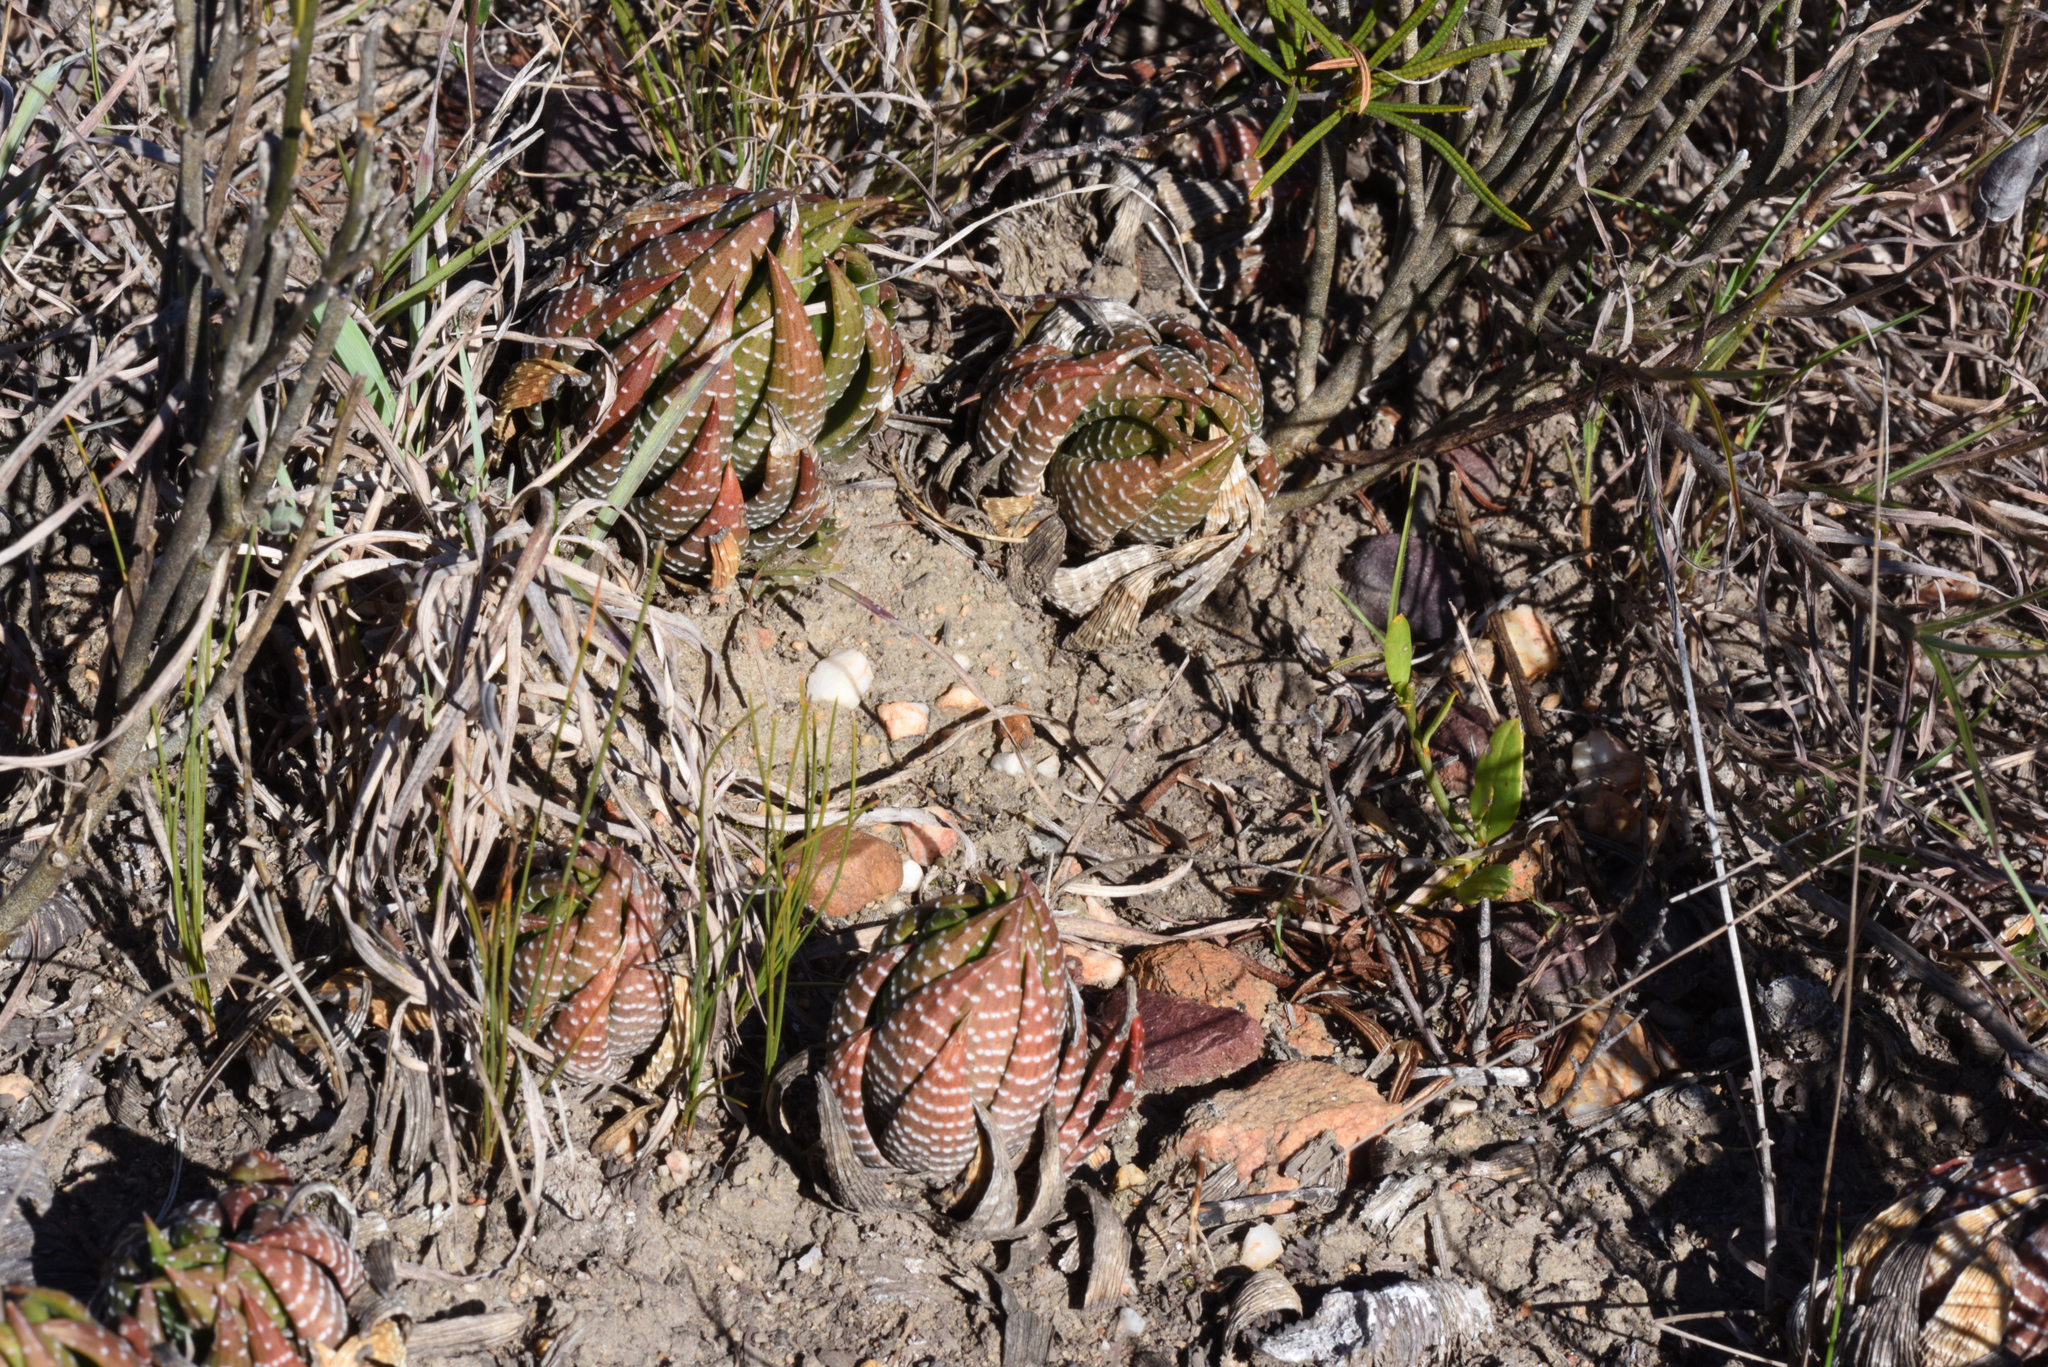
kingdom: Plantae
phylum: Tracheophyta
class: Liliopsida
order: Asparagales
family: Asphodelaceae
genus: Haworthiopsis
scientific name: Haworthiopsis fasciata
